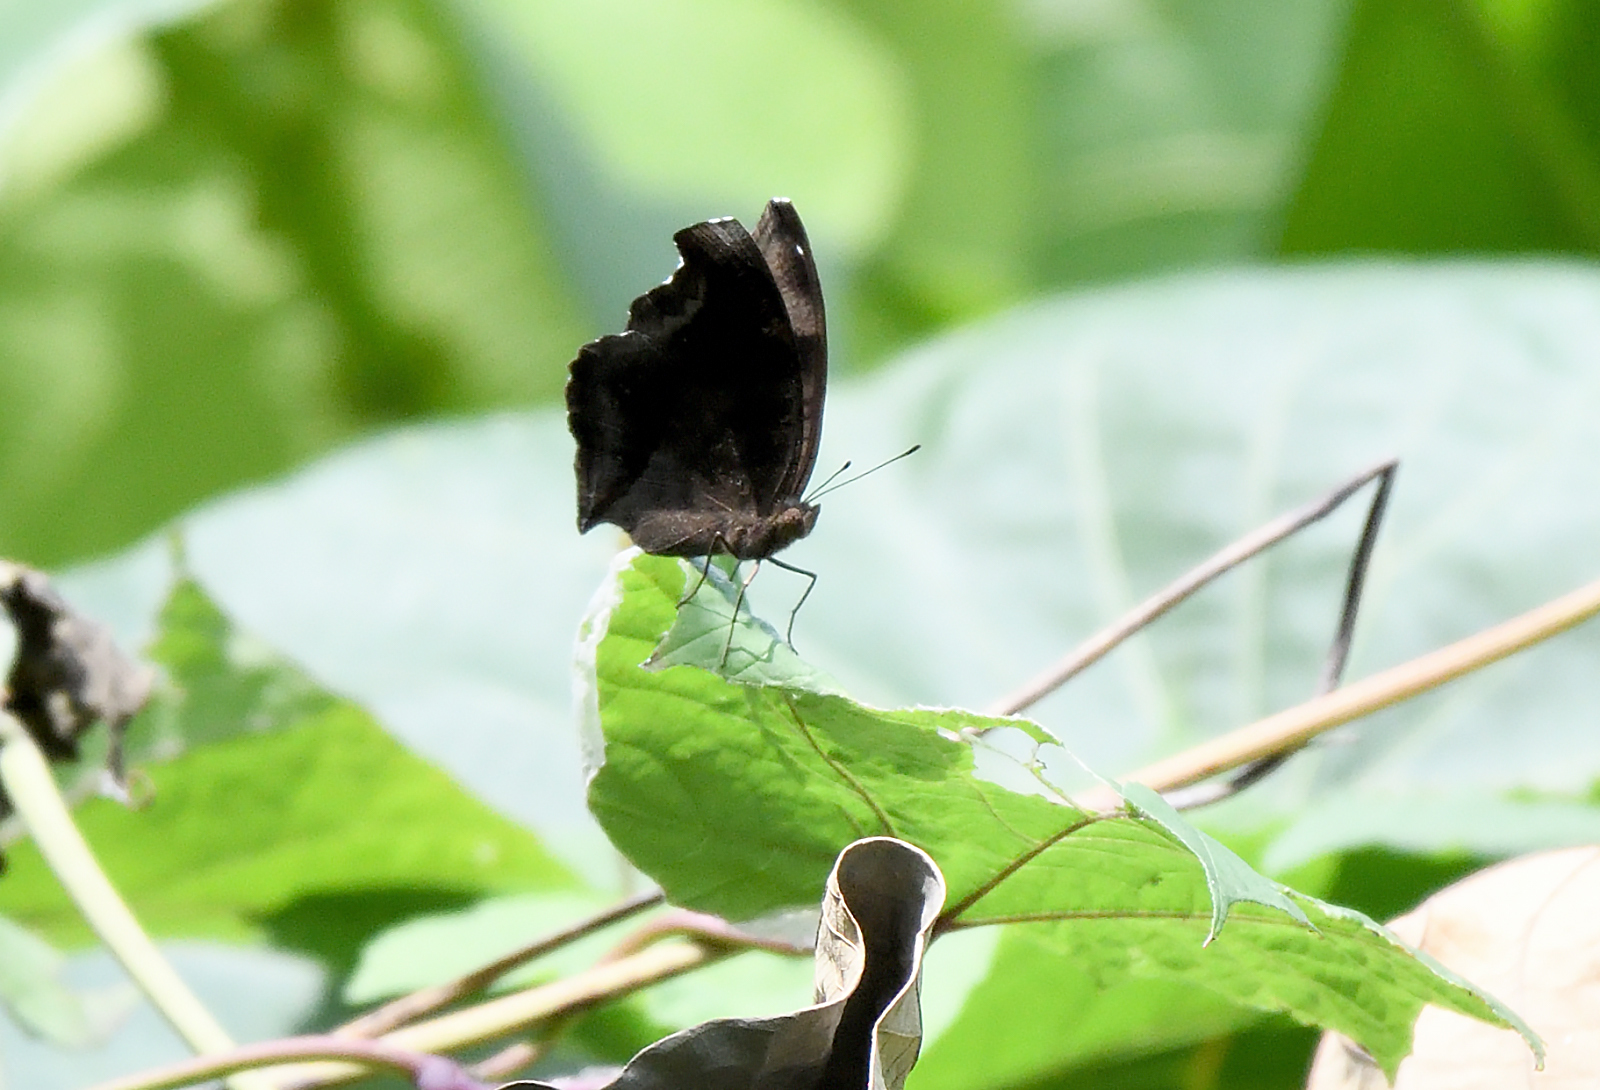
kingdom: Animalia
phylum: Arthropoda
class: Insecta
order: Lepidoptera
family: Nymphalidae
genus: Junonia
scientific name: Junonia iphita
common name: Chocolate pansy
